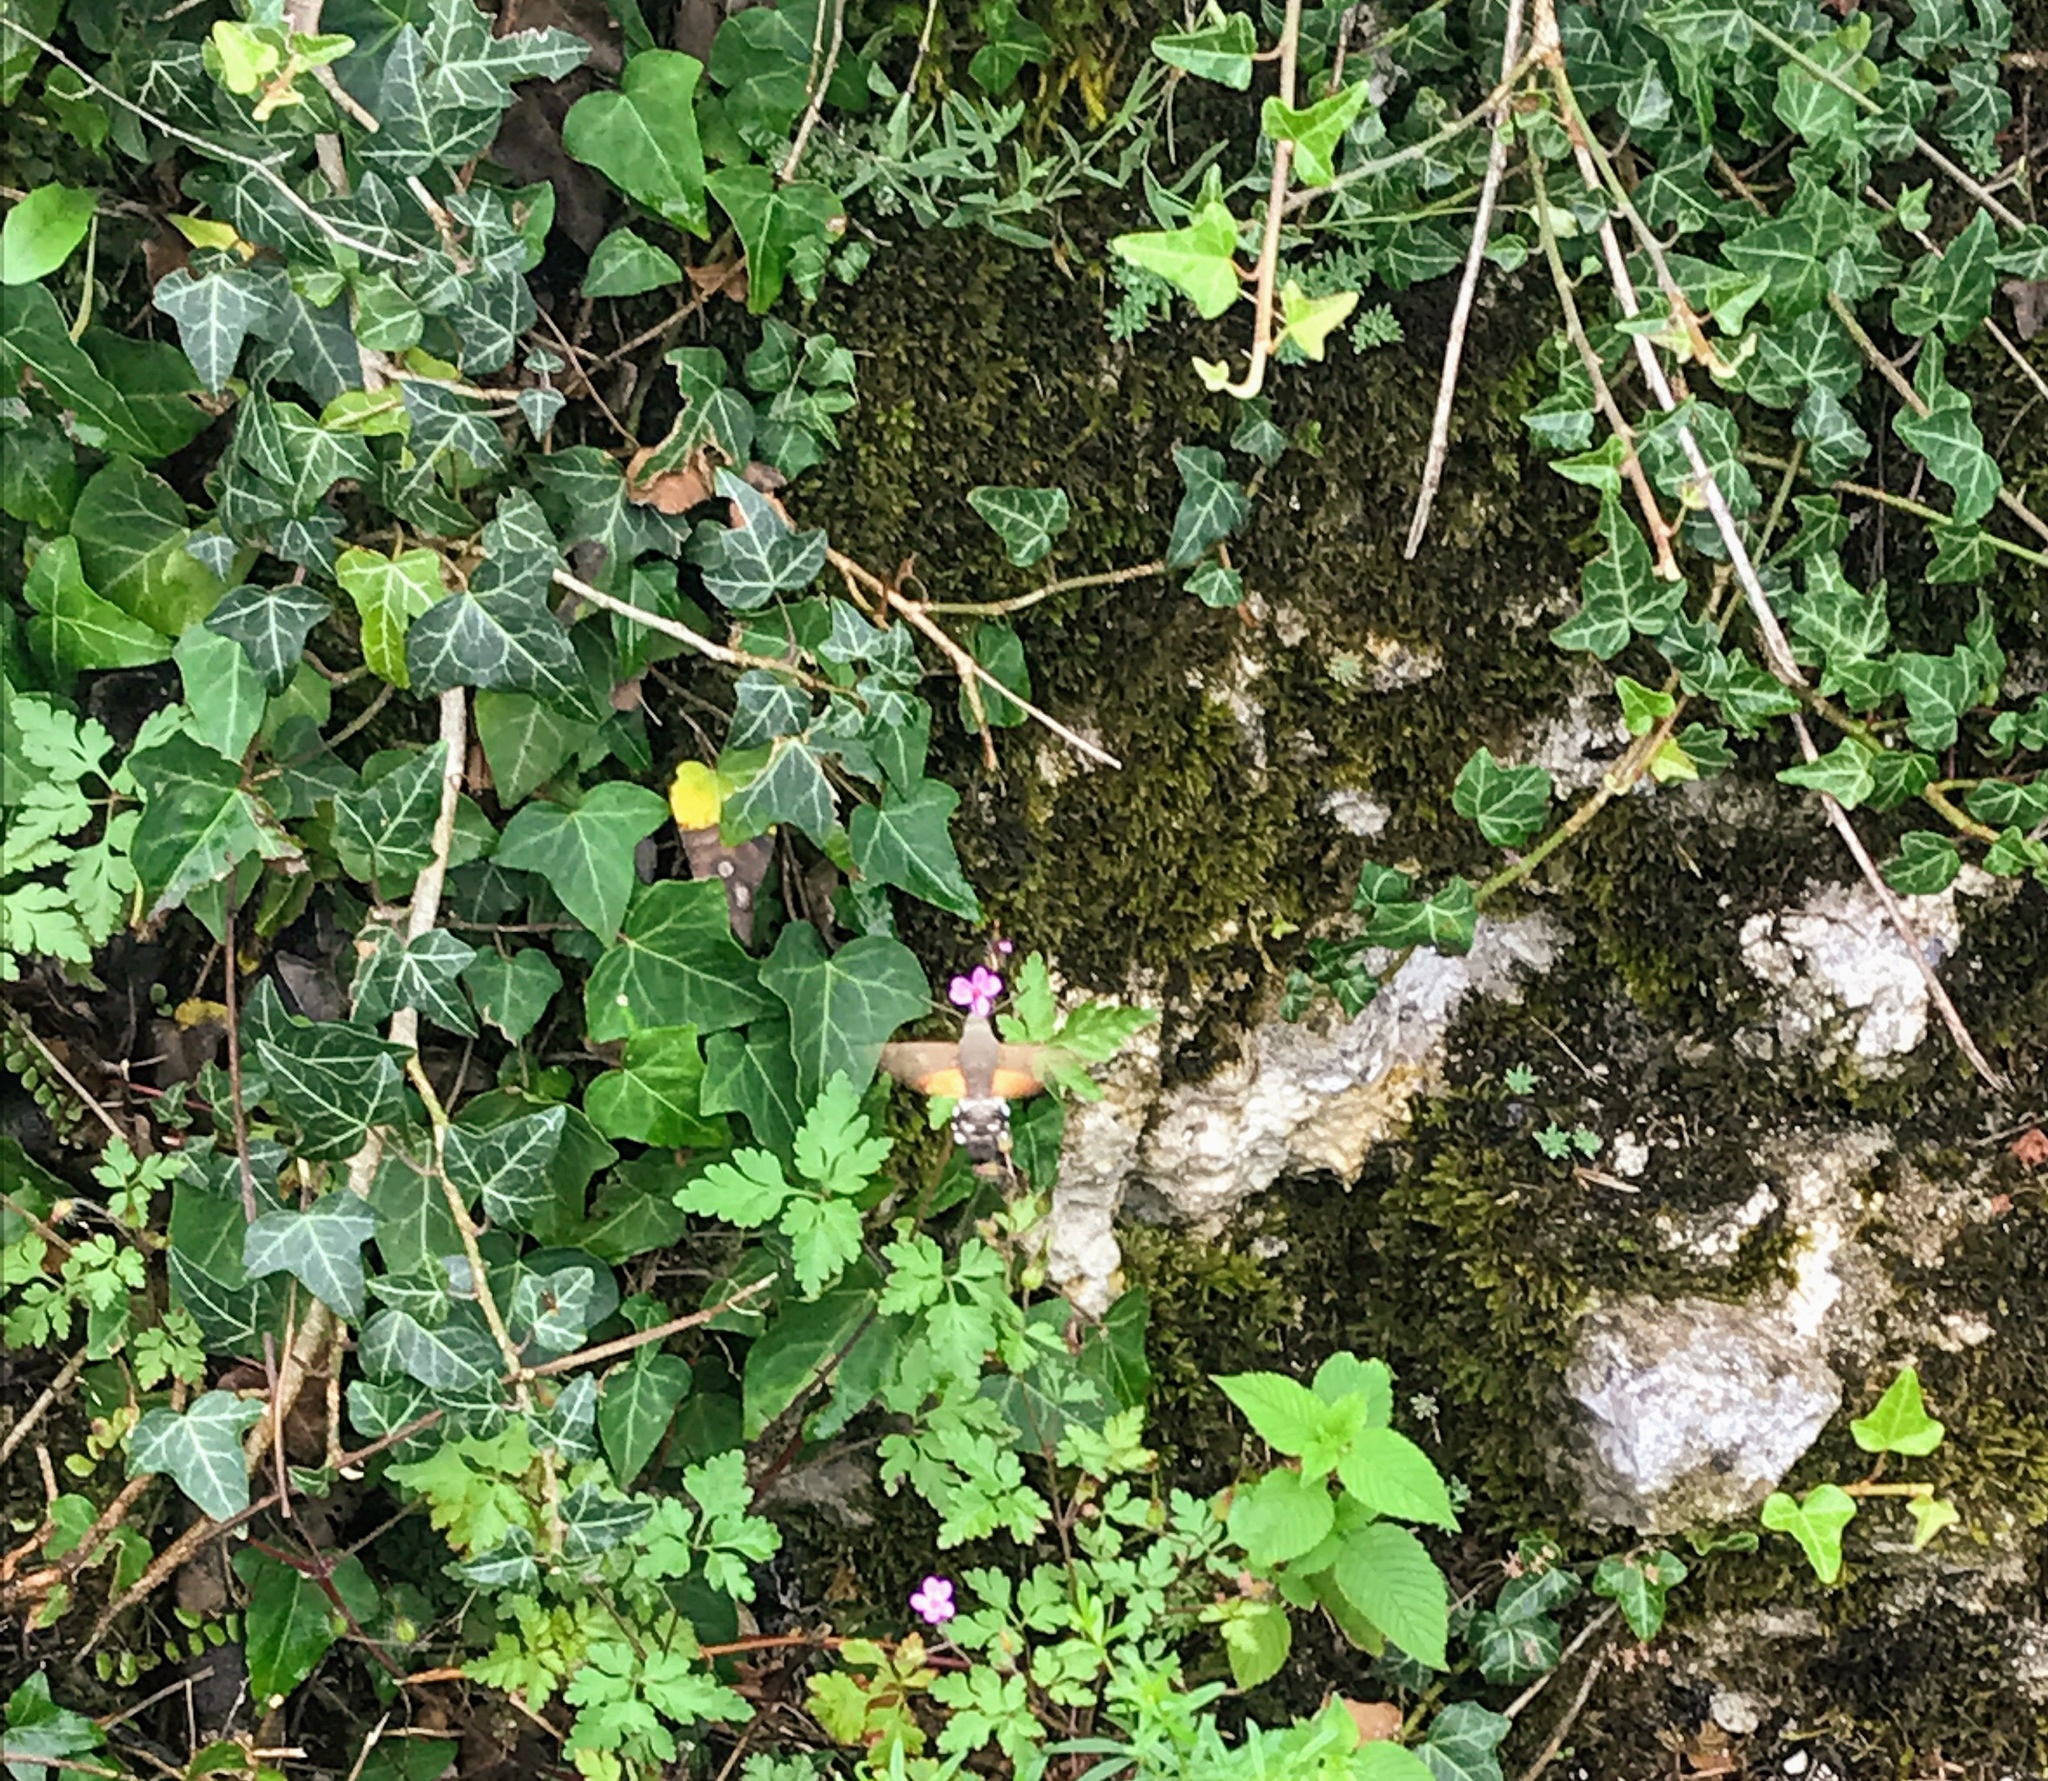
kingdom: Animalia
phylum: Arthropoda
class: Insecta
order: Lepidoptera
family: Sphingidae
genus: Macroglossum
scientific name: Macroglossum stellatarum
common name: Humming-bird hawk-moth
